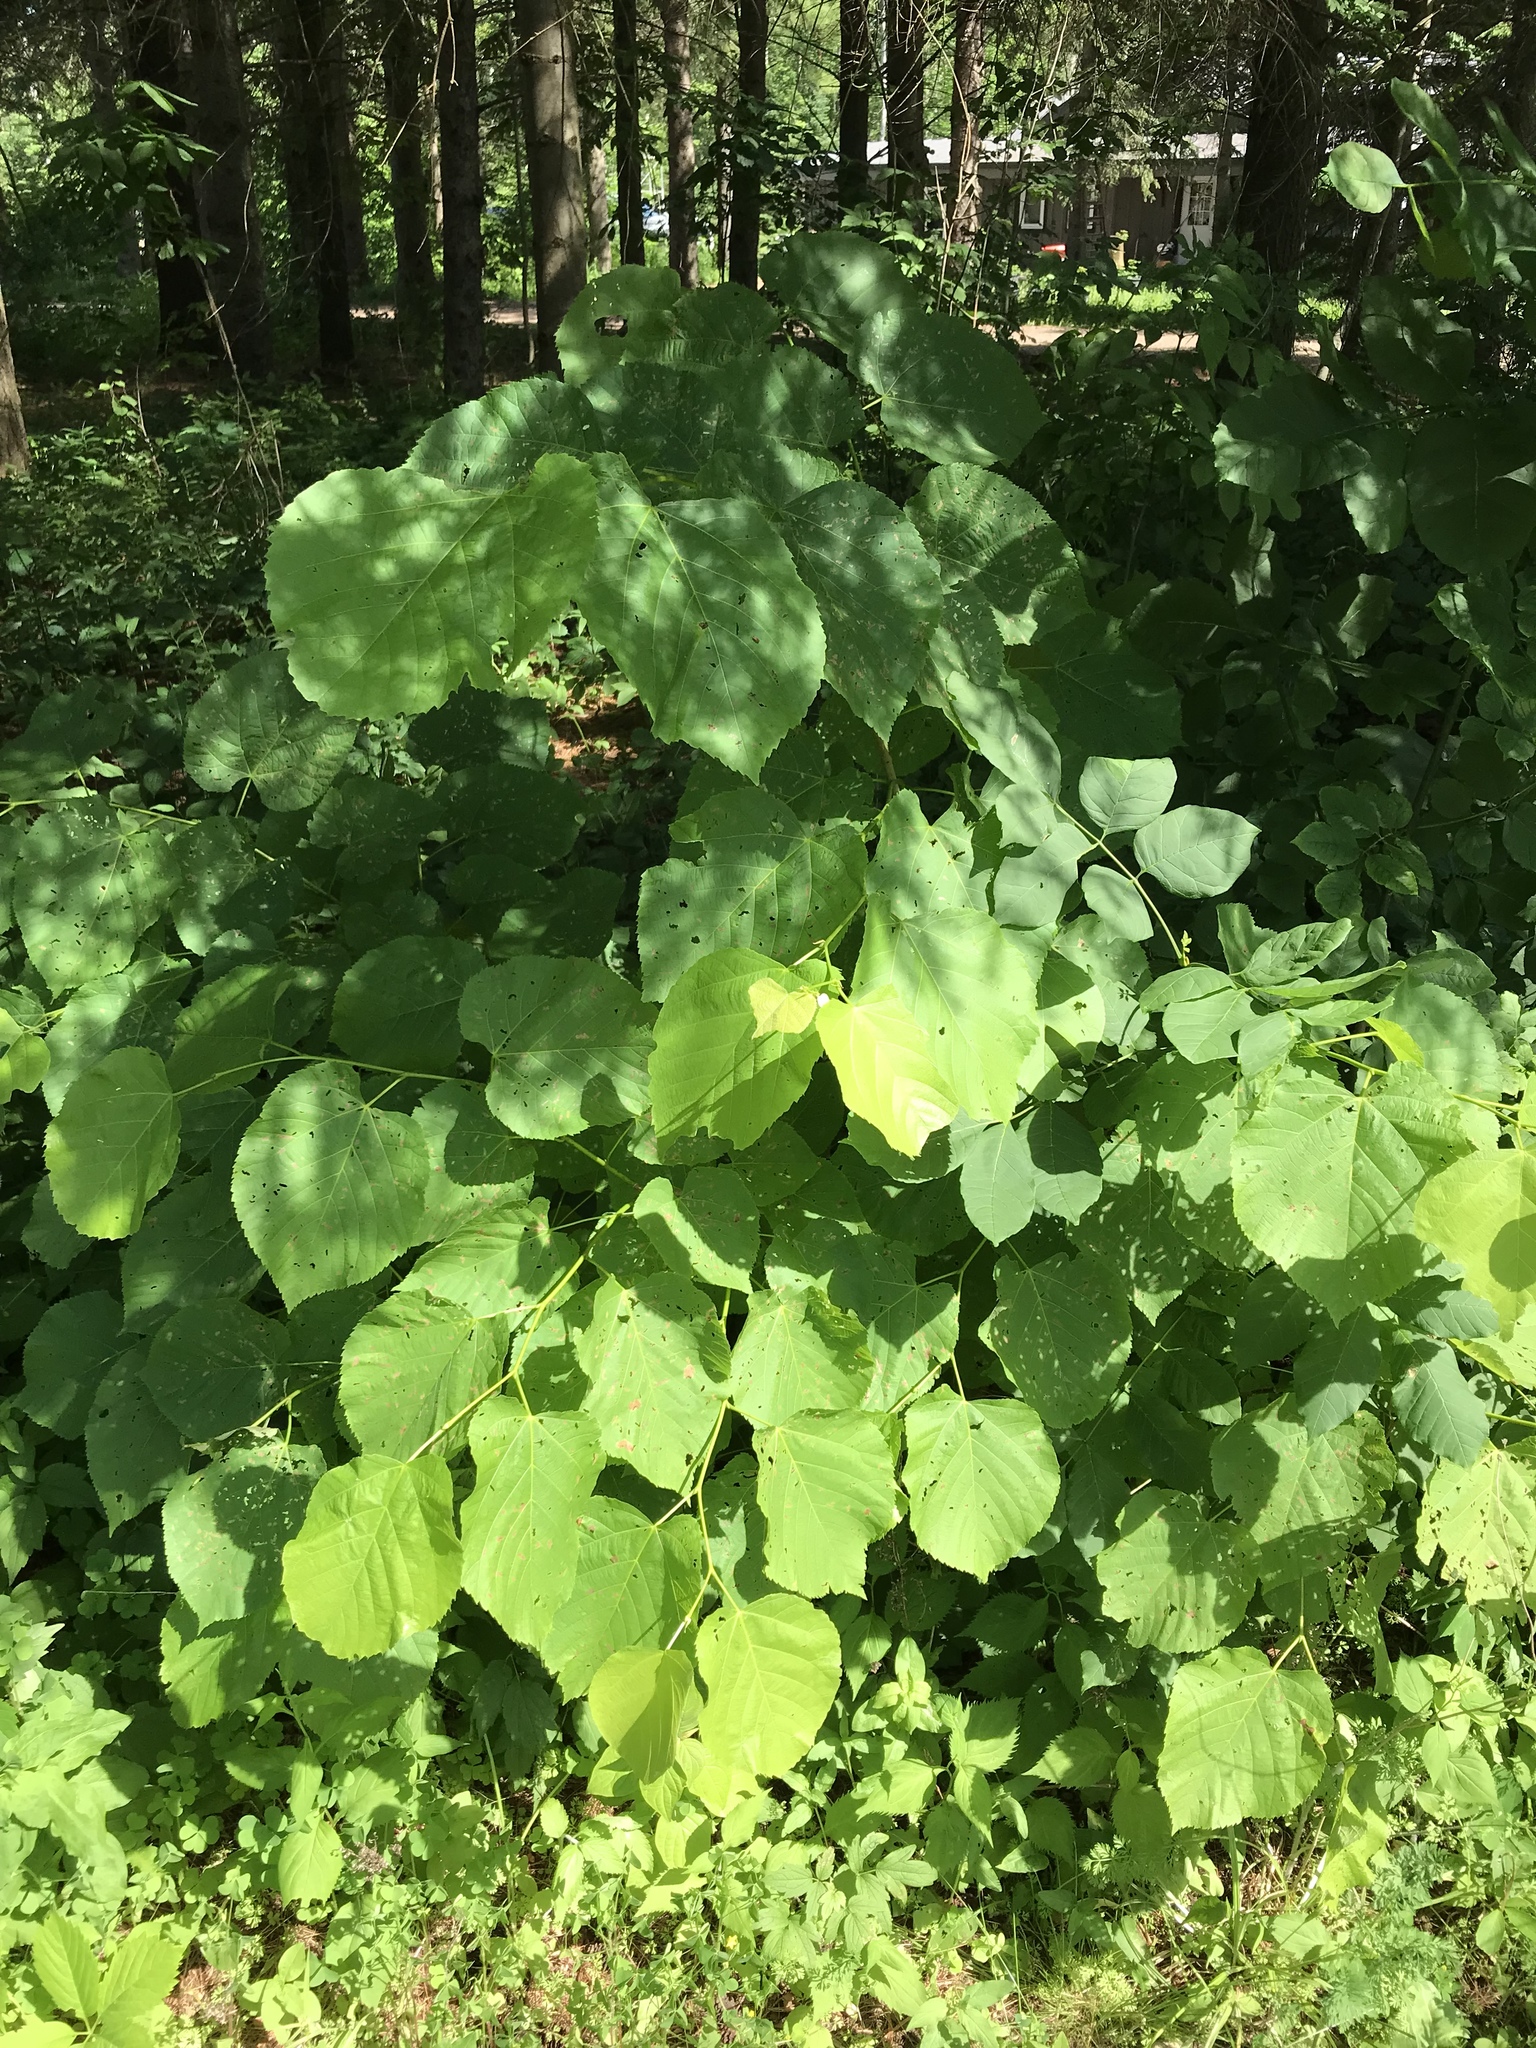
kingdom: Plantae
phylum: Tracheophyta
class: Magnoliopsida
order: Malvales
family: Malvaceae
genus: Tilia
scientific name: Tilia americana
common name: Basswood
